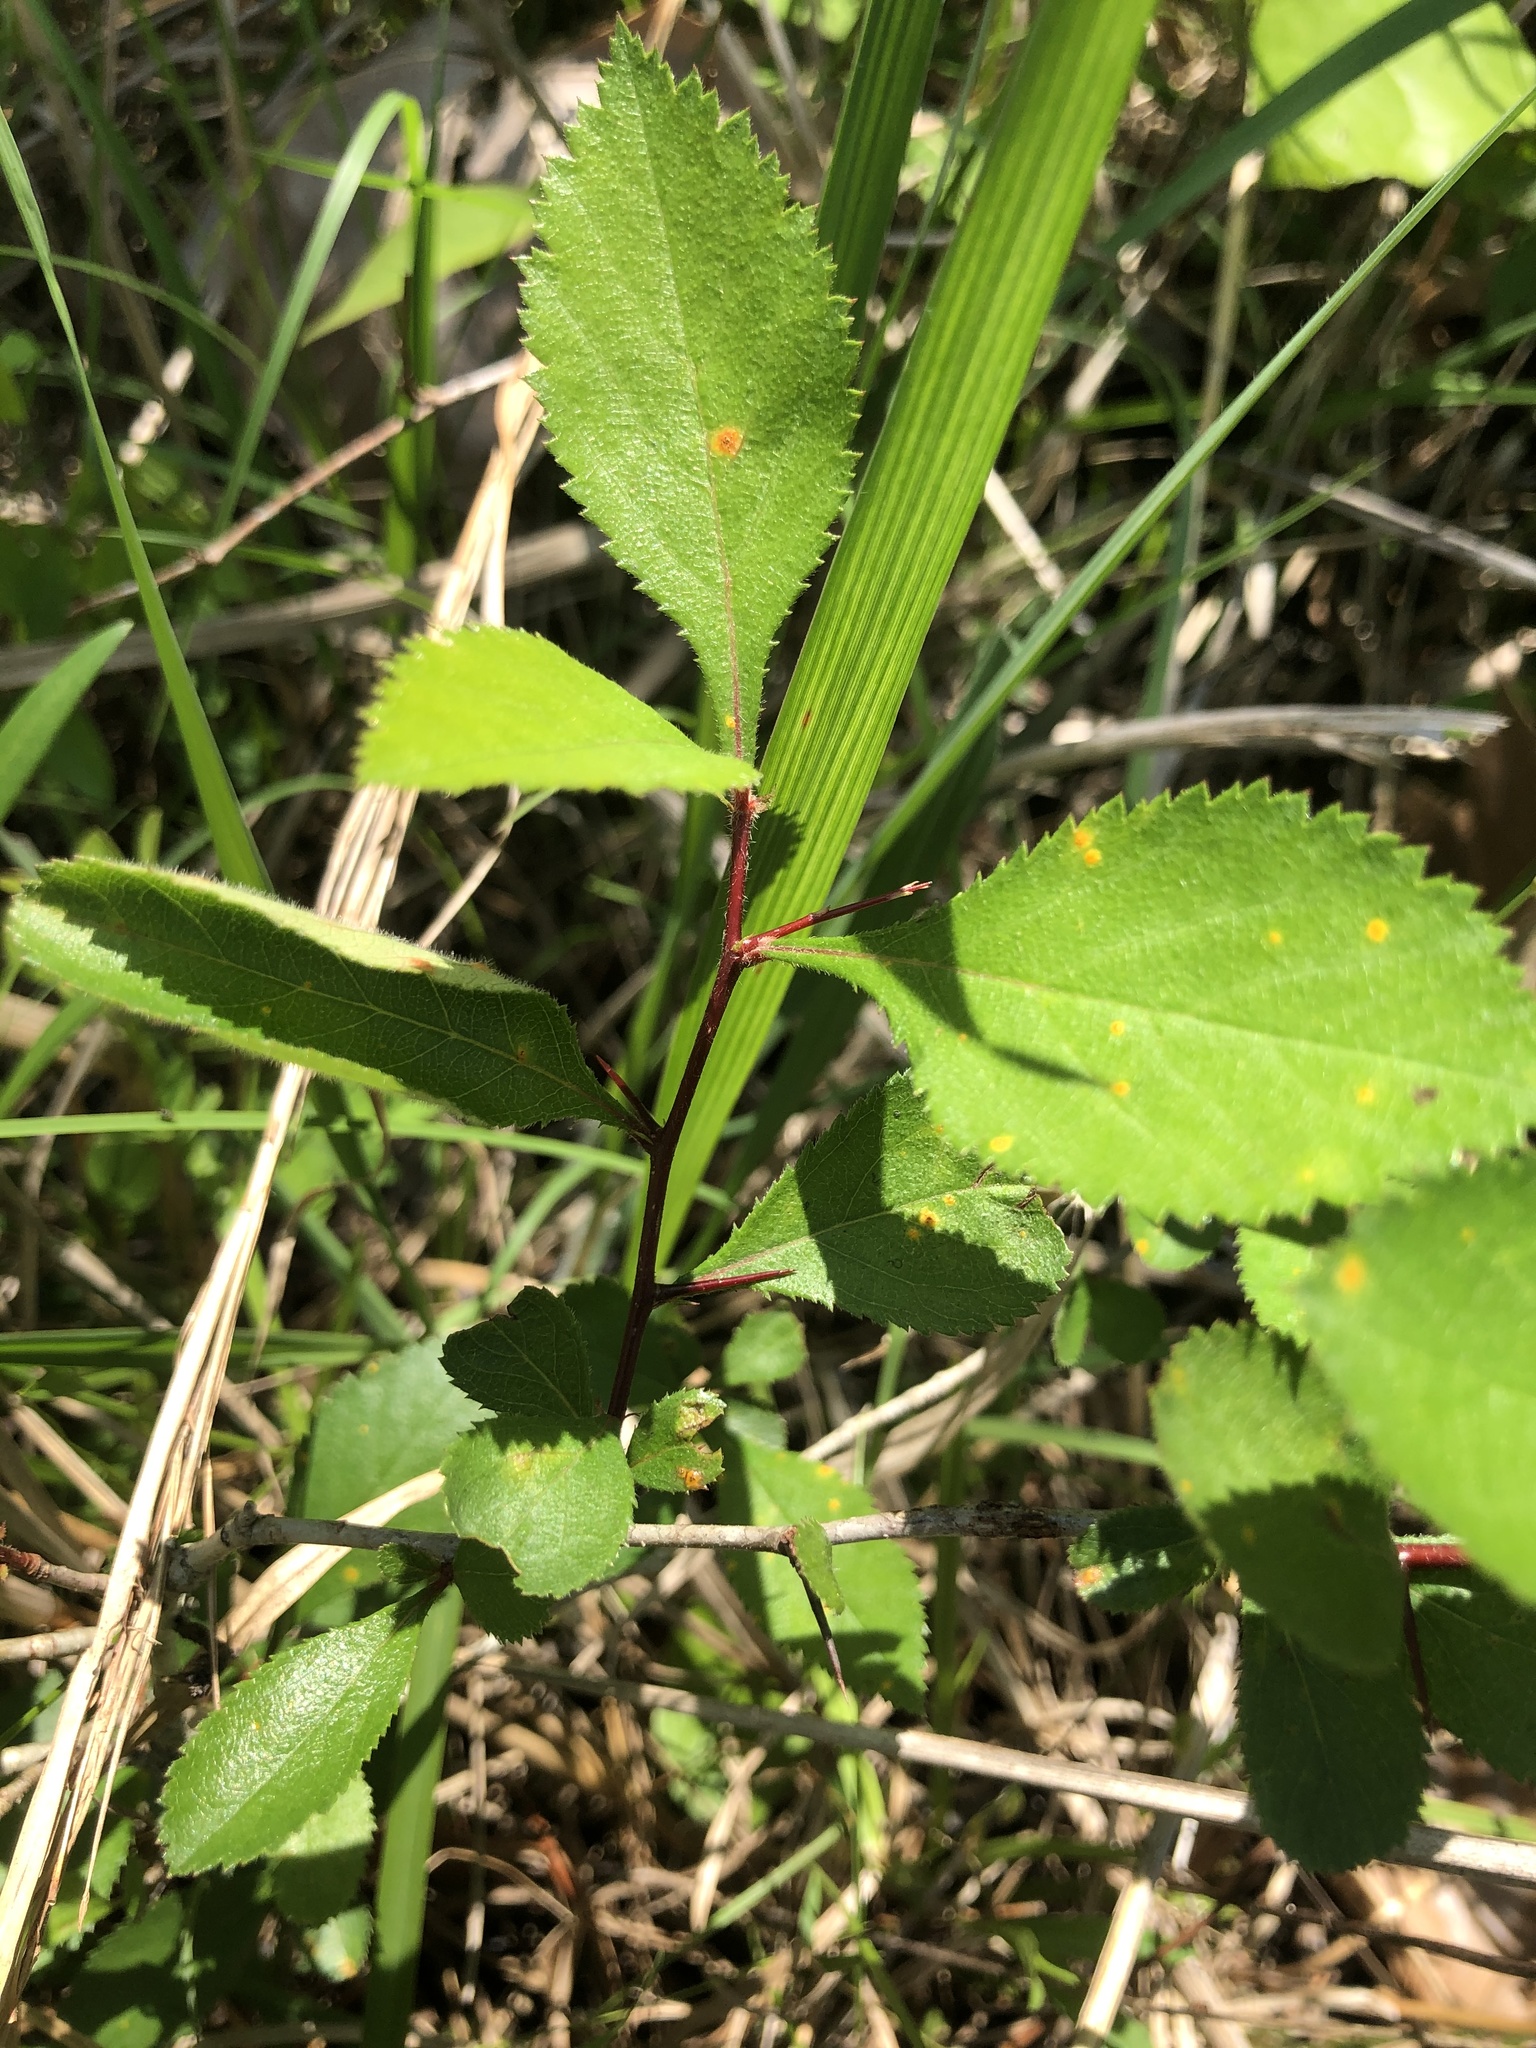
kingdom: Plantae
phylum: Tracheophyta
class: Magnoliopsida
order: Rosales
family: Rosaceae
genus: Crataegus
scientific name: Crataegus berberifolia
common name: Barberry hawthorn
